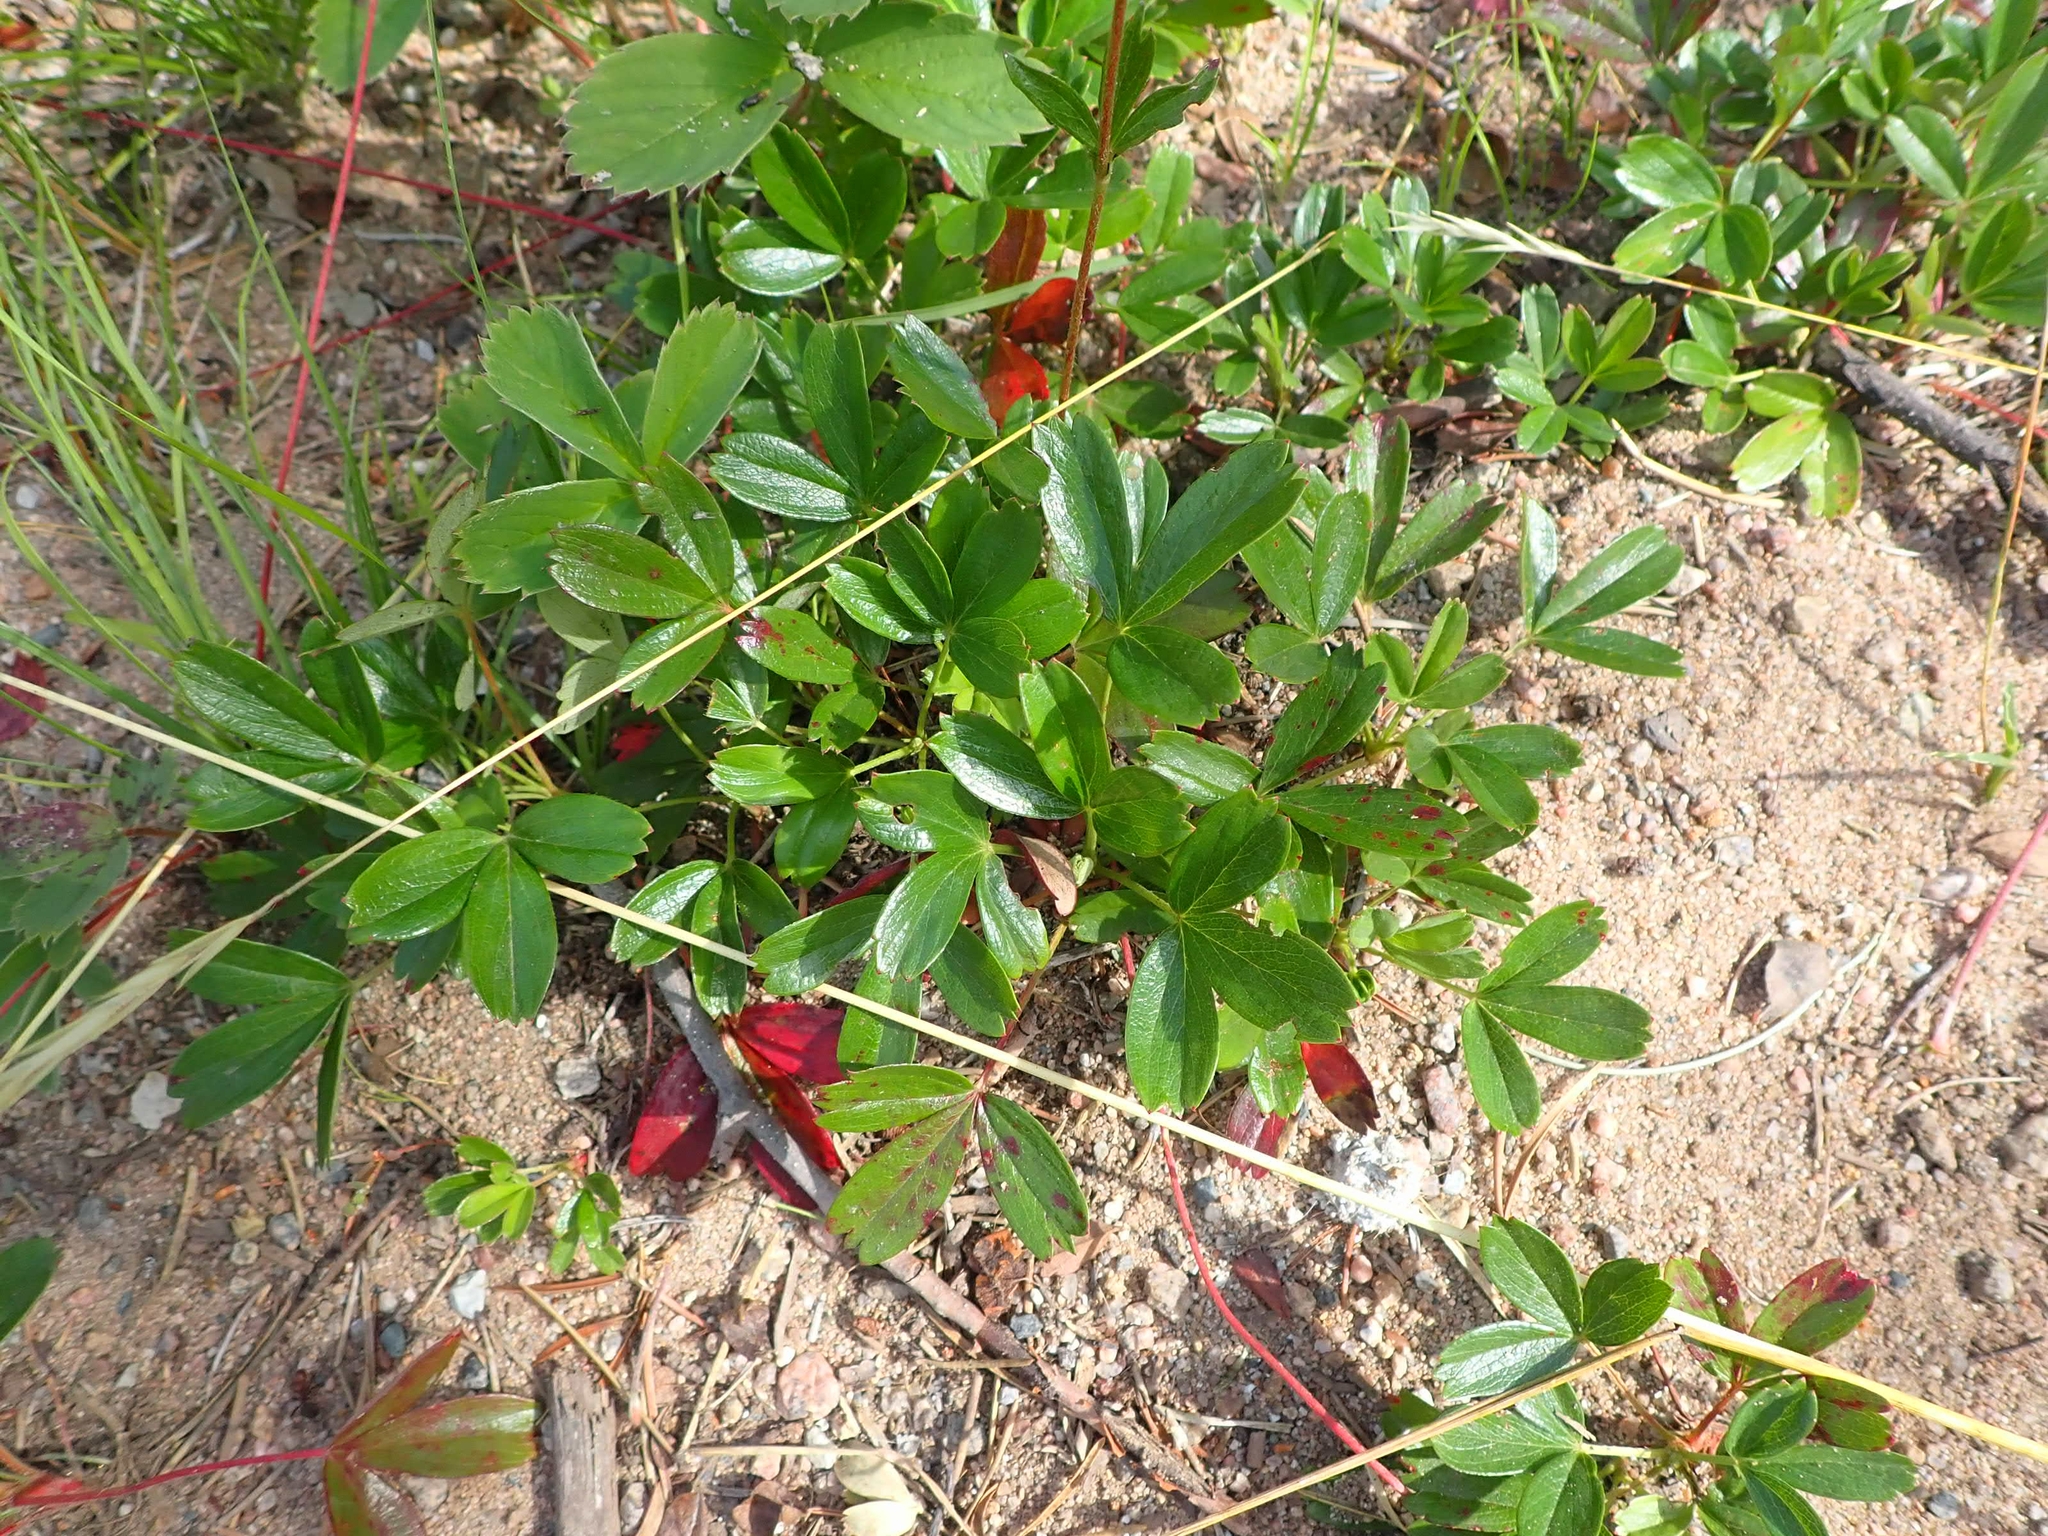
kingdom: Plantae
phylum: Tracheophyta
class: Magnoliopsida
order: Rosales
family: Rosaceae
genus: Sibbaldia
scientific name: Sibbaldia tridentata
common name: Three-toothed cinquefoil
